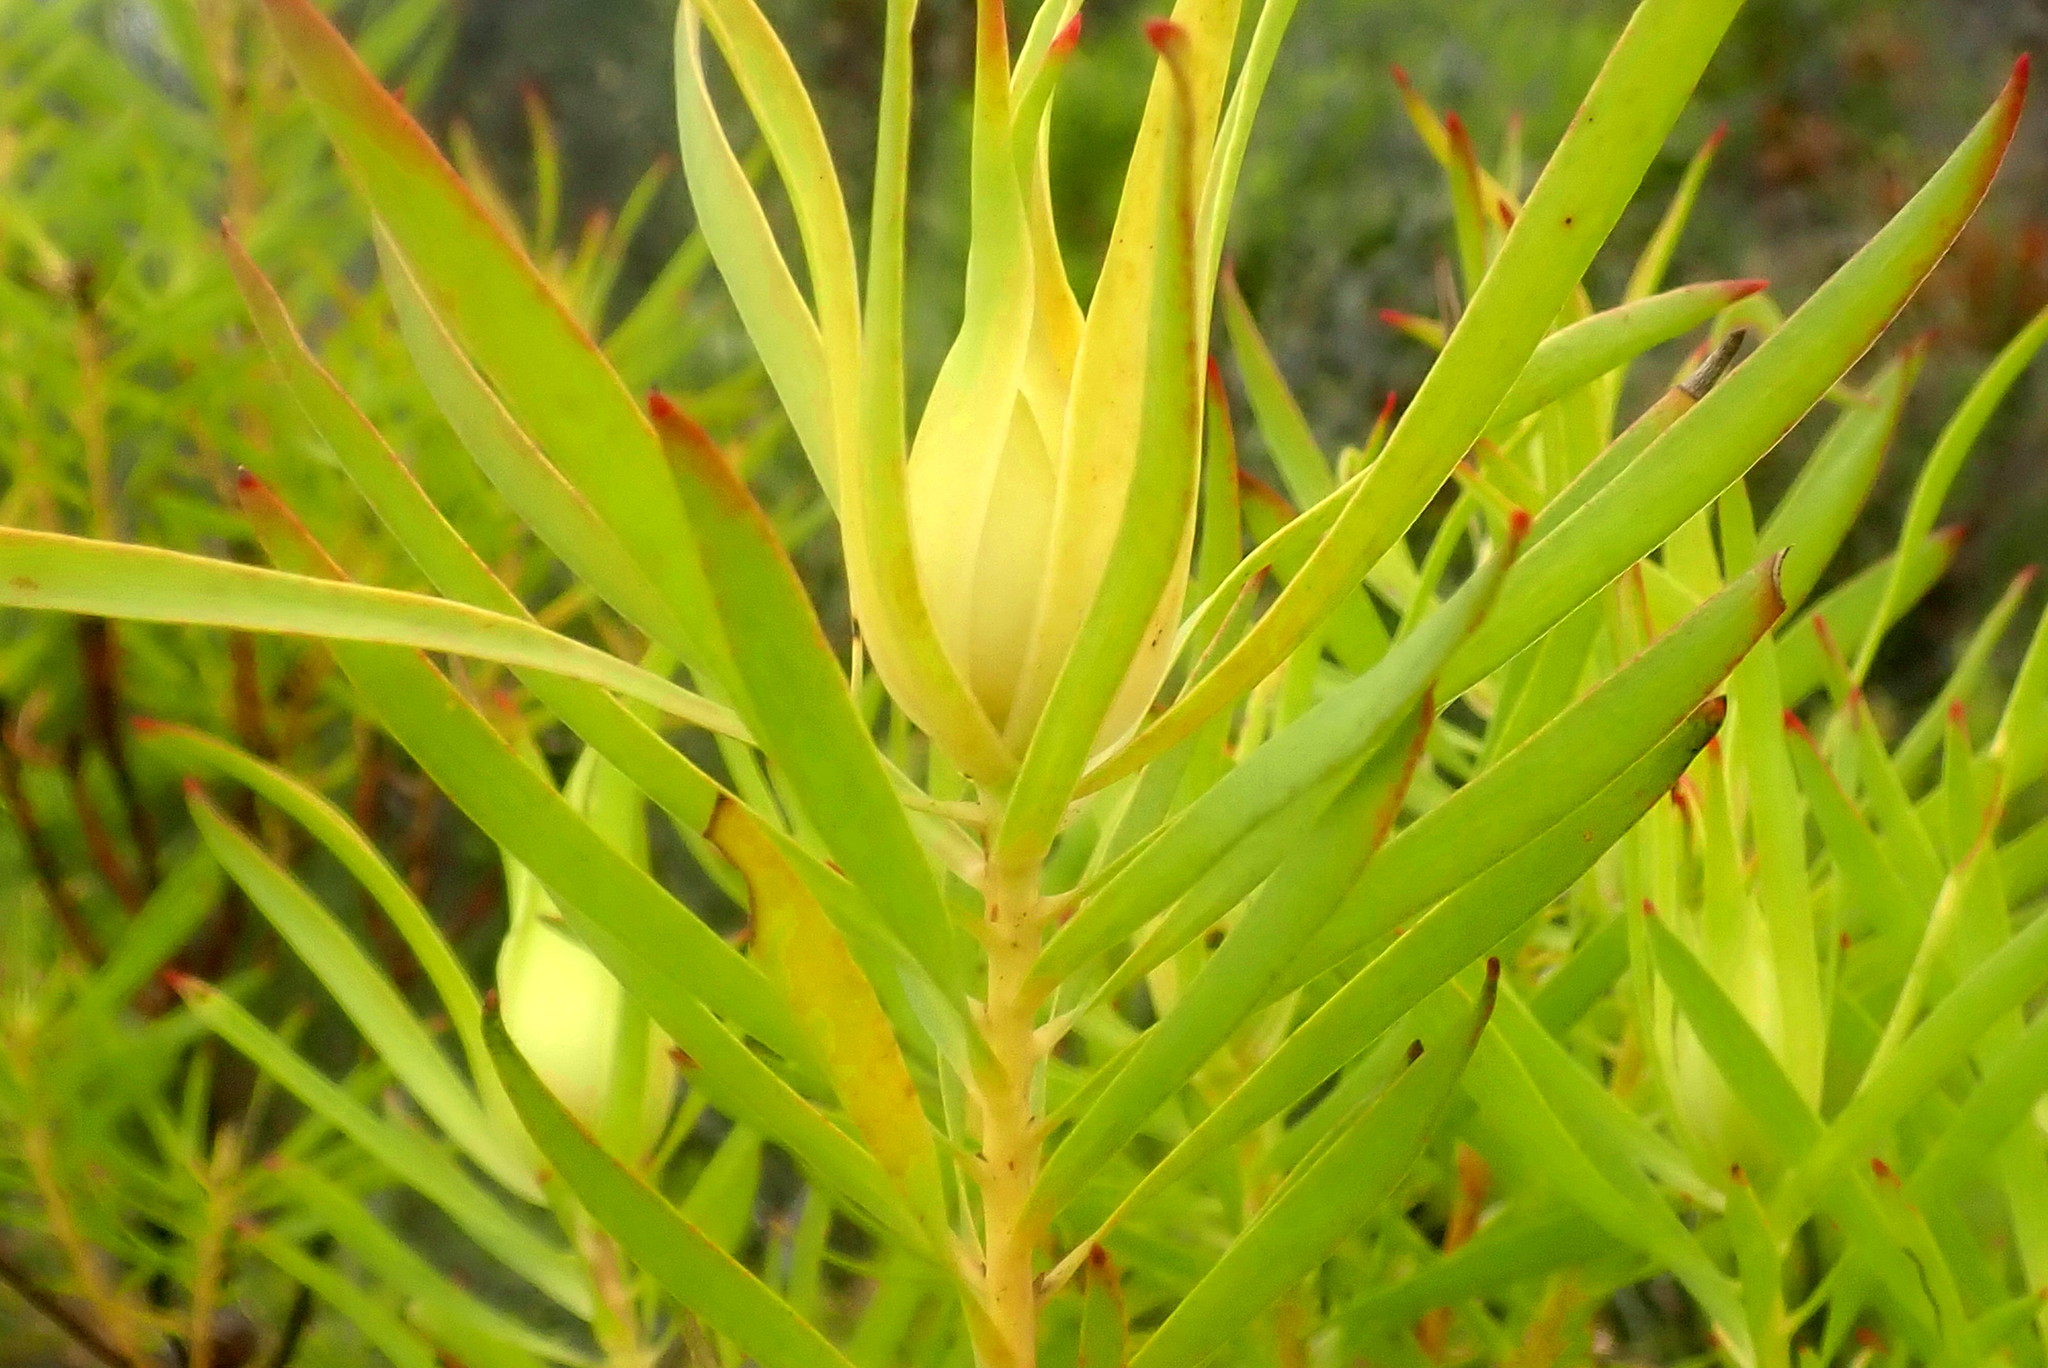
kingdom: Plantae
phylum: Tracheophyta
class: Magnoliopsida
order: Proteales
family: Proteaceae
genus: Leucadendron
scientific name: Leucadendron salignum
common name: Common sunshine conebush
